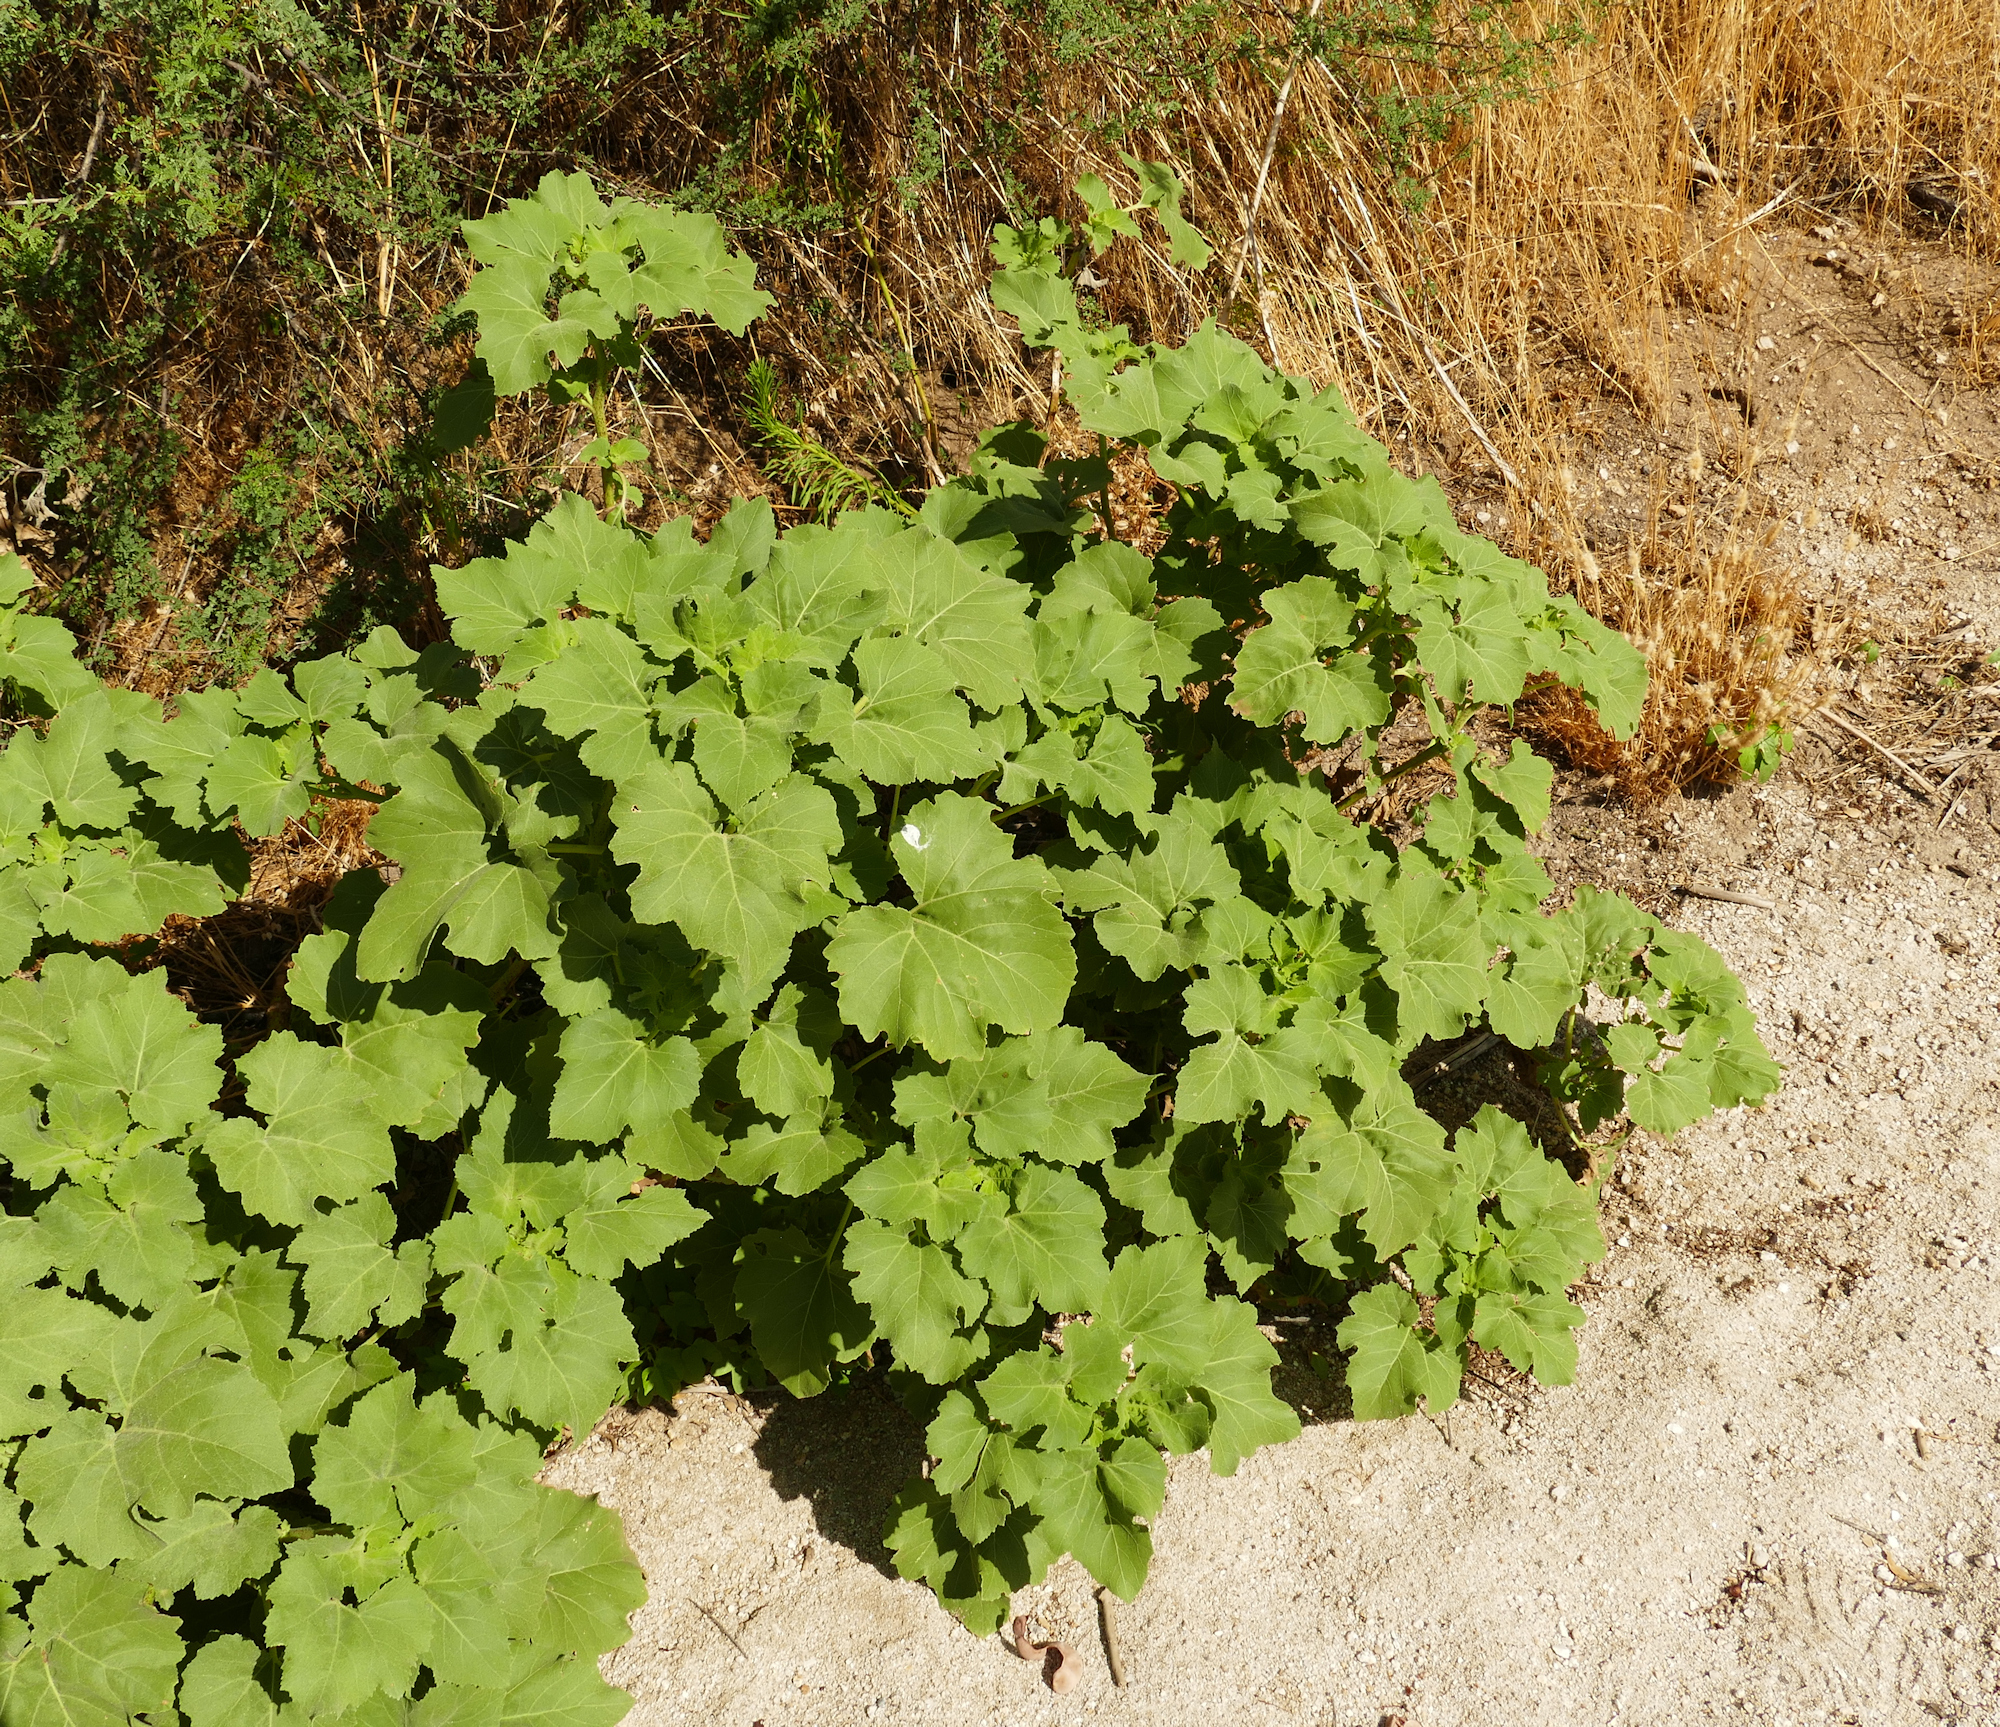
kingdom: Plantae
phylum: Tracheophyta
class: Magnoliopsida
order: Asterales
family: Asteraceae
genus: Xanthium
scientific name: Xanthium strumarium
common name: Rough cocklebur
